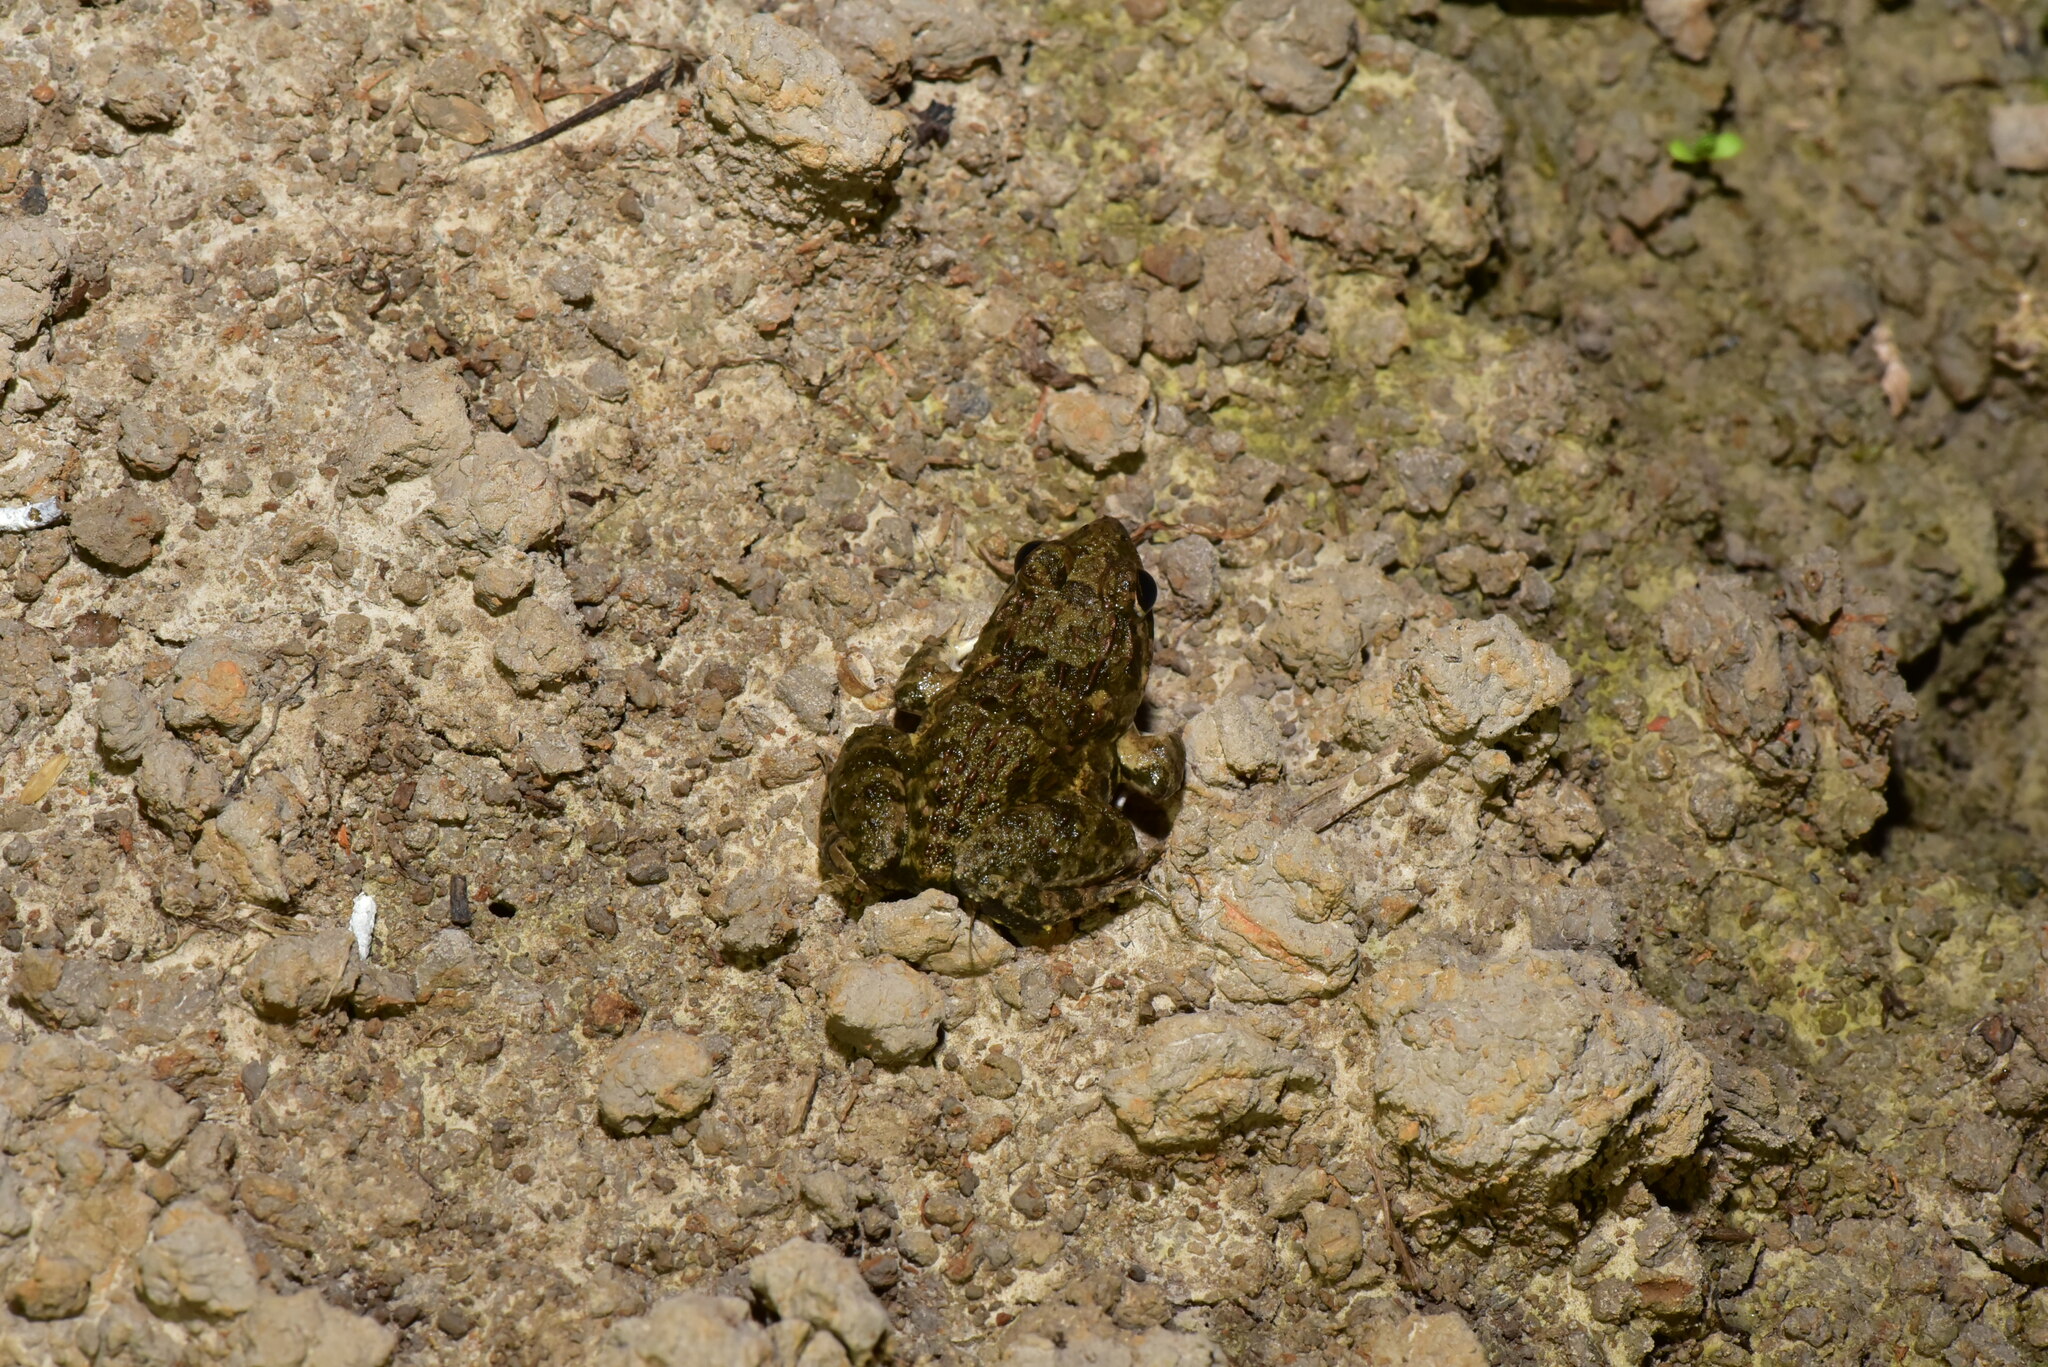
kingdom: Animalia
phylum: Chordata
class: Amphibia
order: Anura
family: Dicroglossidae
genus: Fejervarya
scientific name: Fejervarya limnocharis
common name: Asian grass frog/common pond frog/field frog/grass frog/indian rice frog
